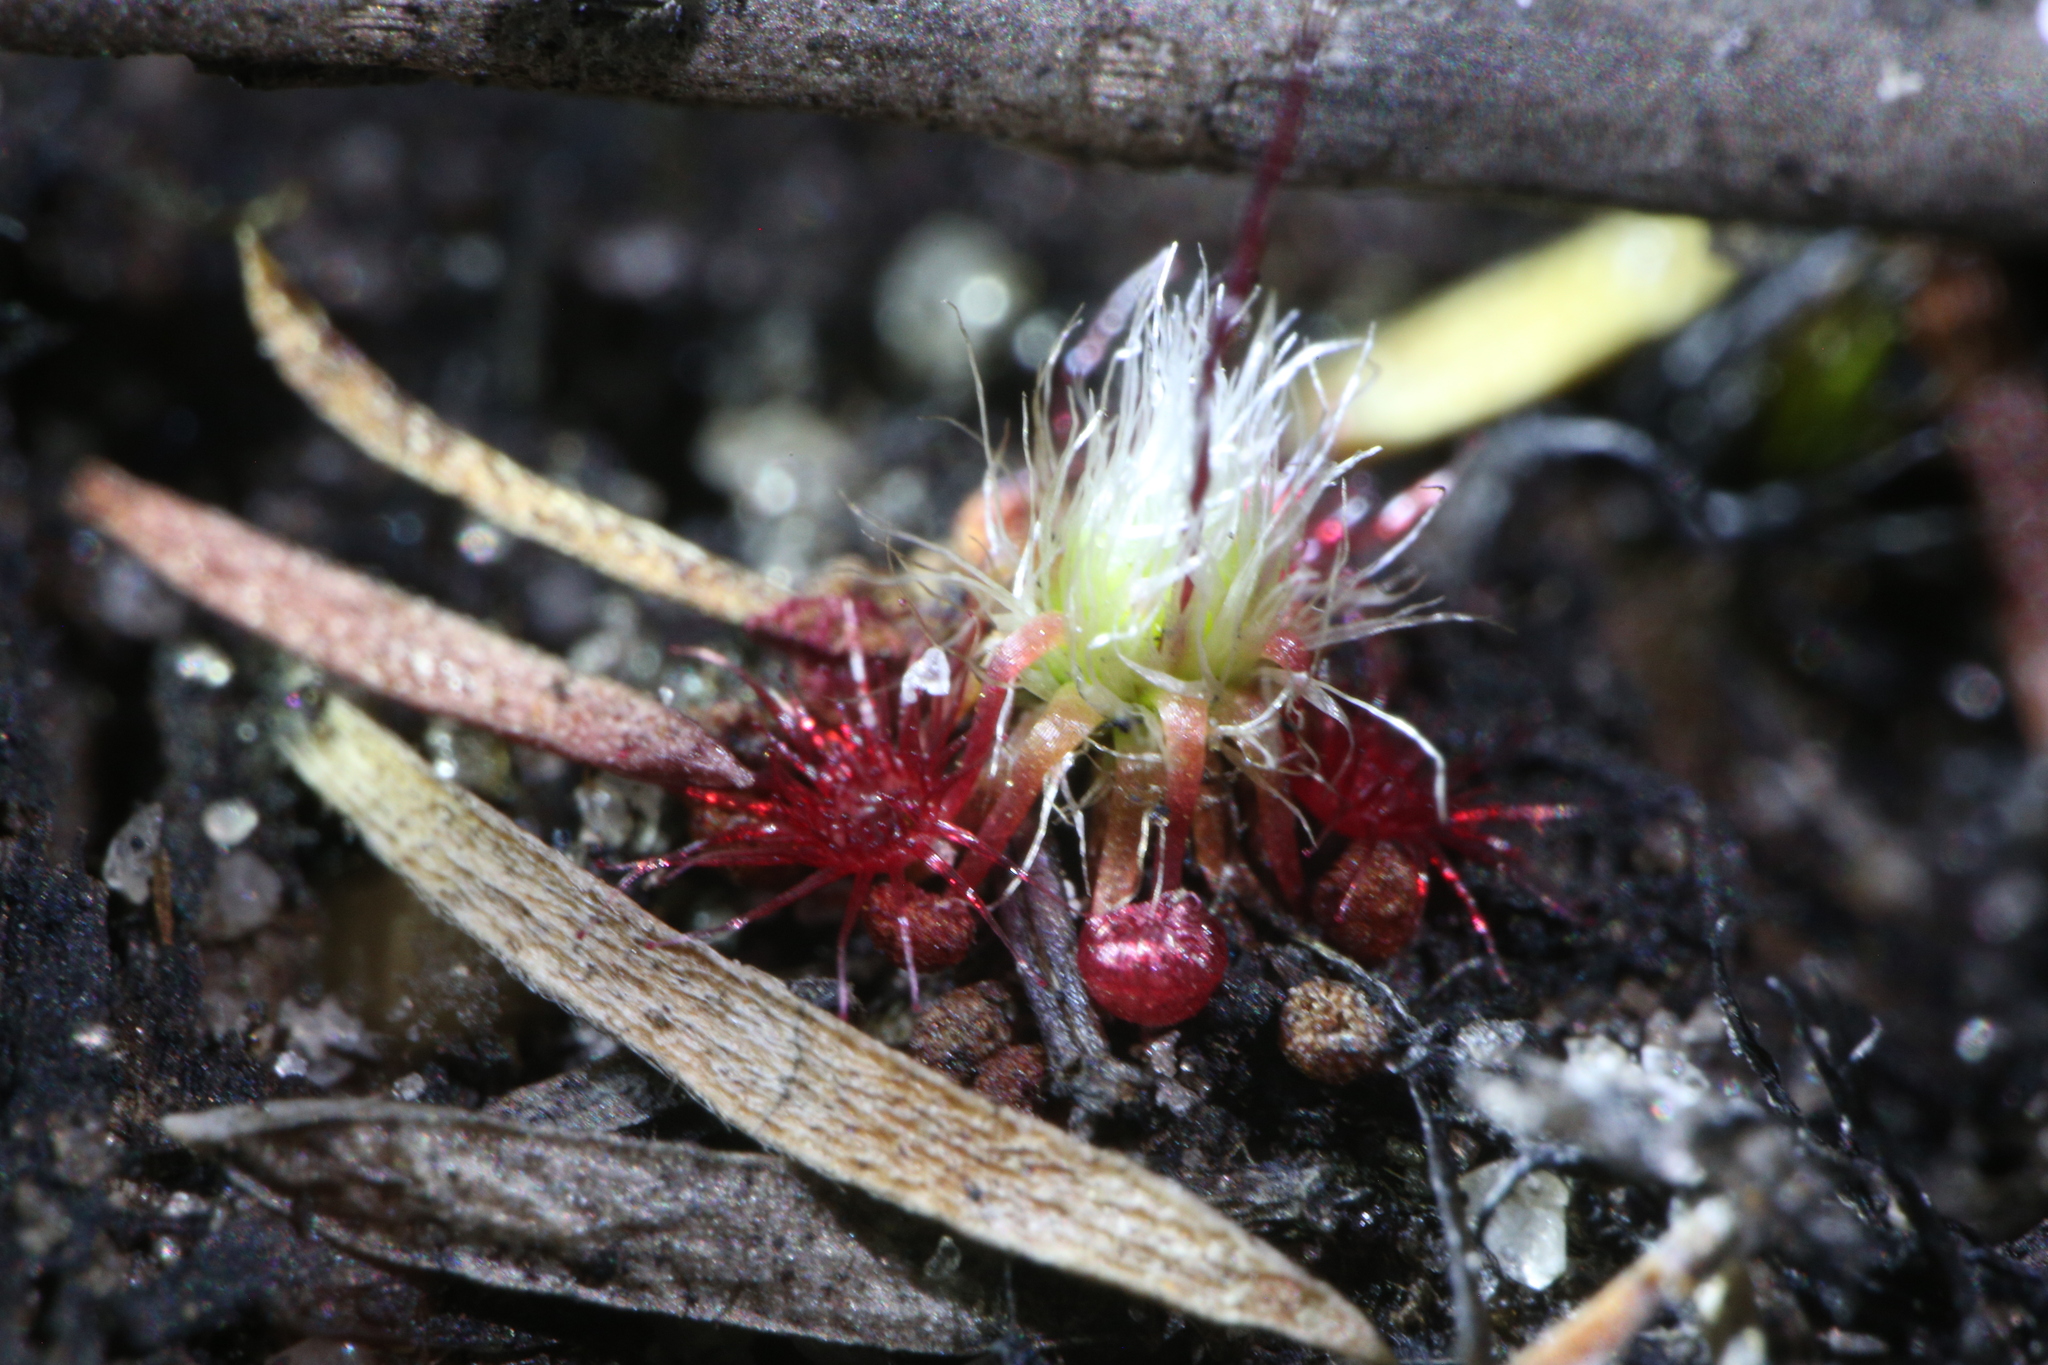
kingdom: Plantae
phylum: Tracheophyta
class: Magnoliopsida
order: Caryophyllales
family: Droseraceae
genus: Drosera
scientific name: Drosera pygmaea
